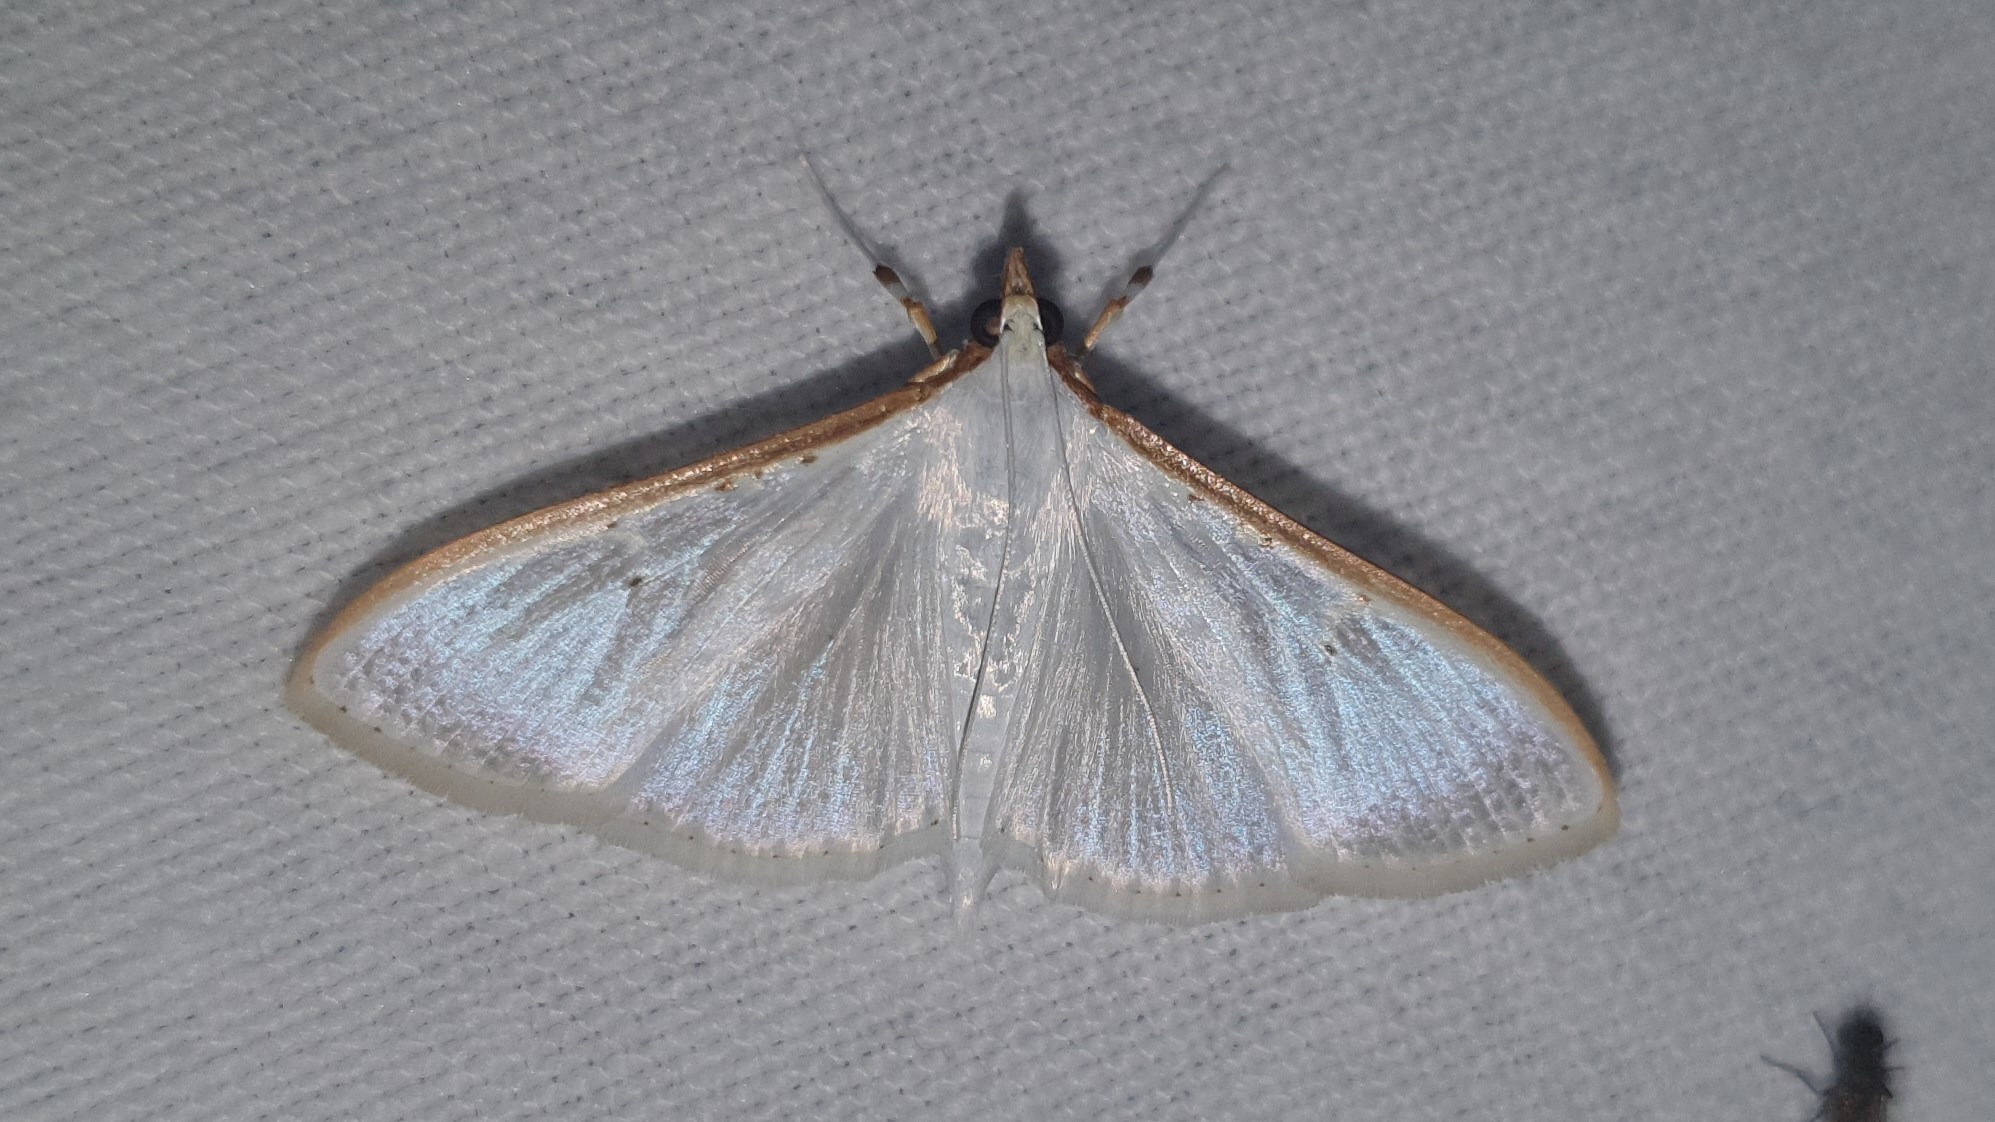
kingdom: Animalia
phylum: Arthropoda
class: Insecta
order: Lepidoptera
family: Crambidae
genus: Palpita
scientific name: Palpita vitrealis
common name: Olive-tree pearl
